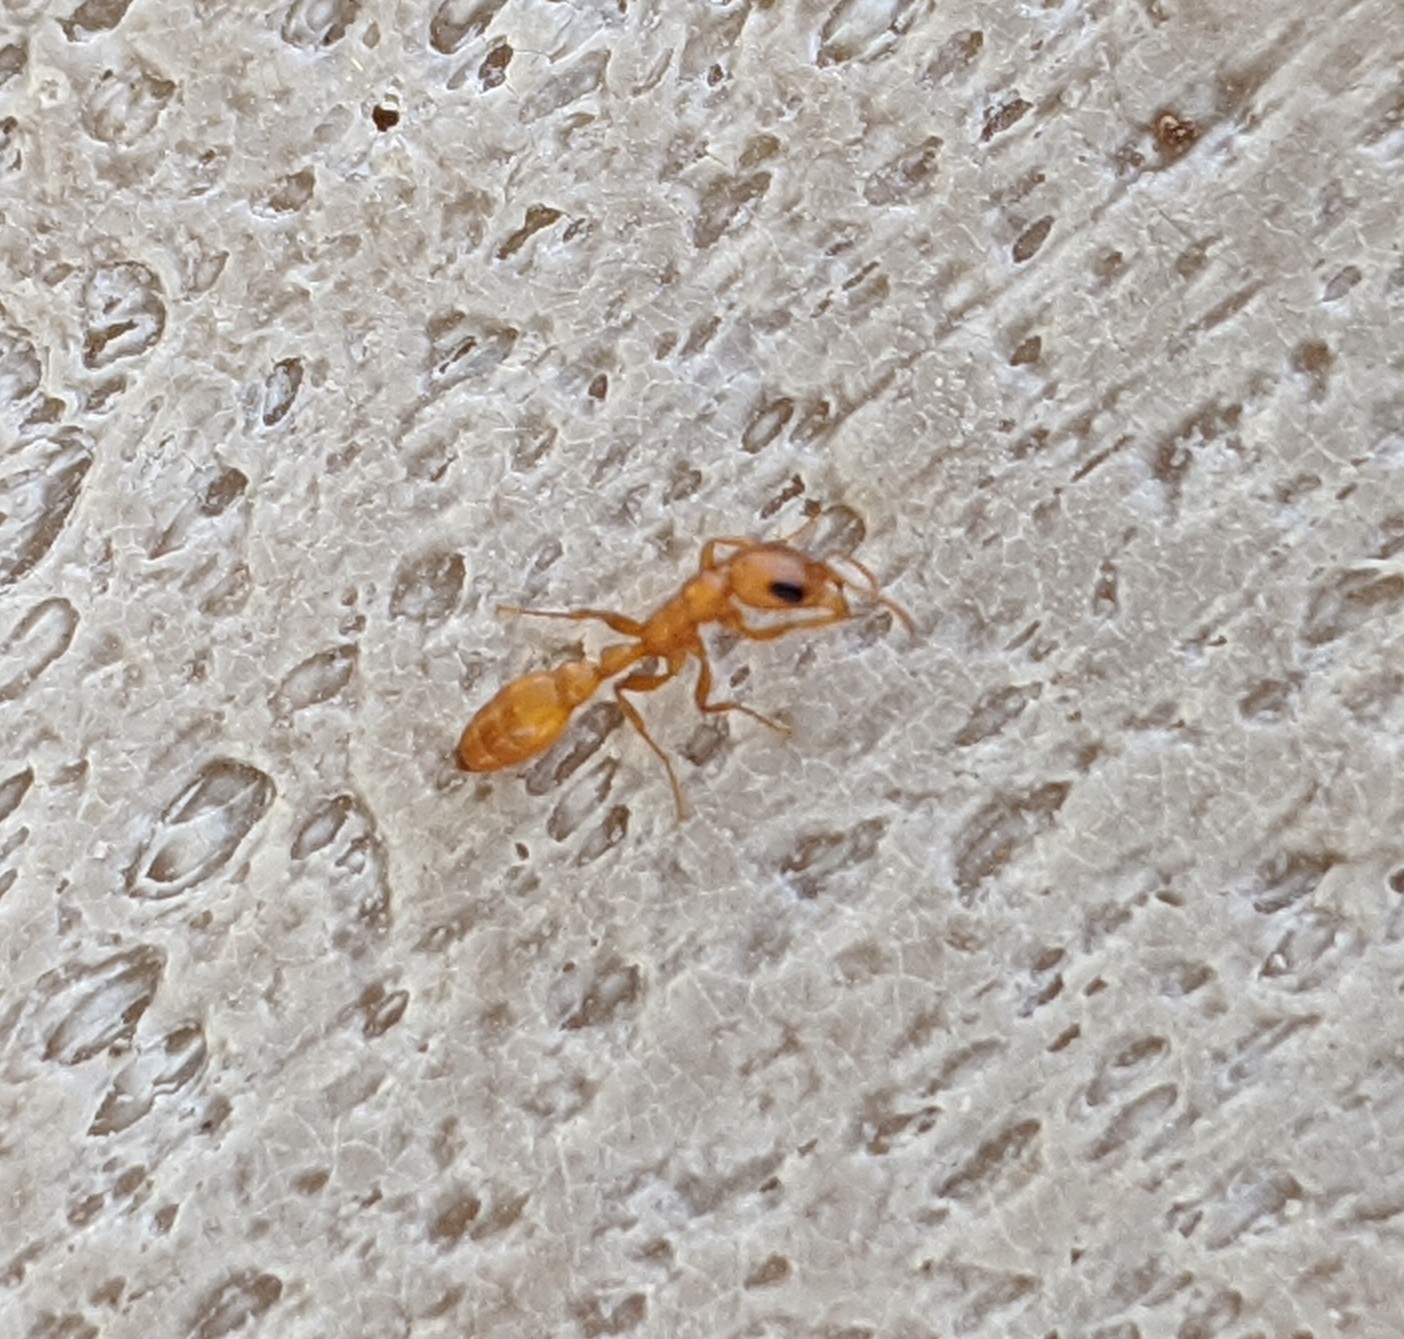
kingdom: Animalia
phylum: Arthropoda
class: Insecta
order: Hymenoptera
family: Formicidae
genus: Pseudomyrmex
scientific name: Pseudomyrmex pallidus
